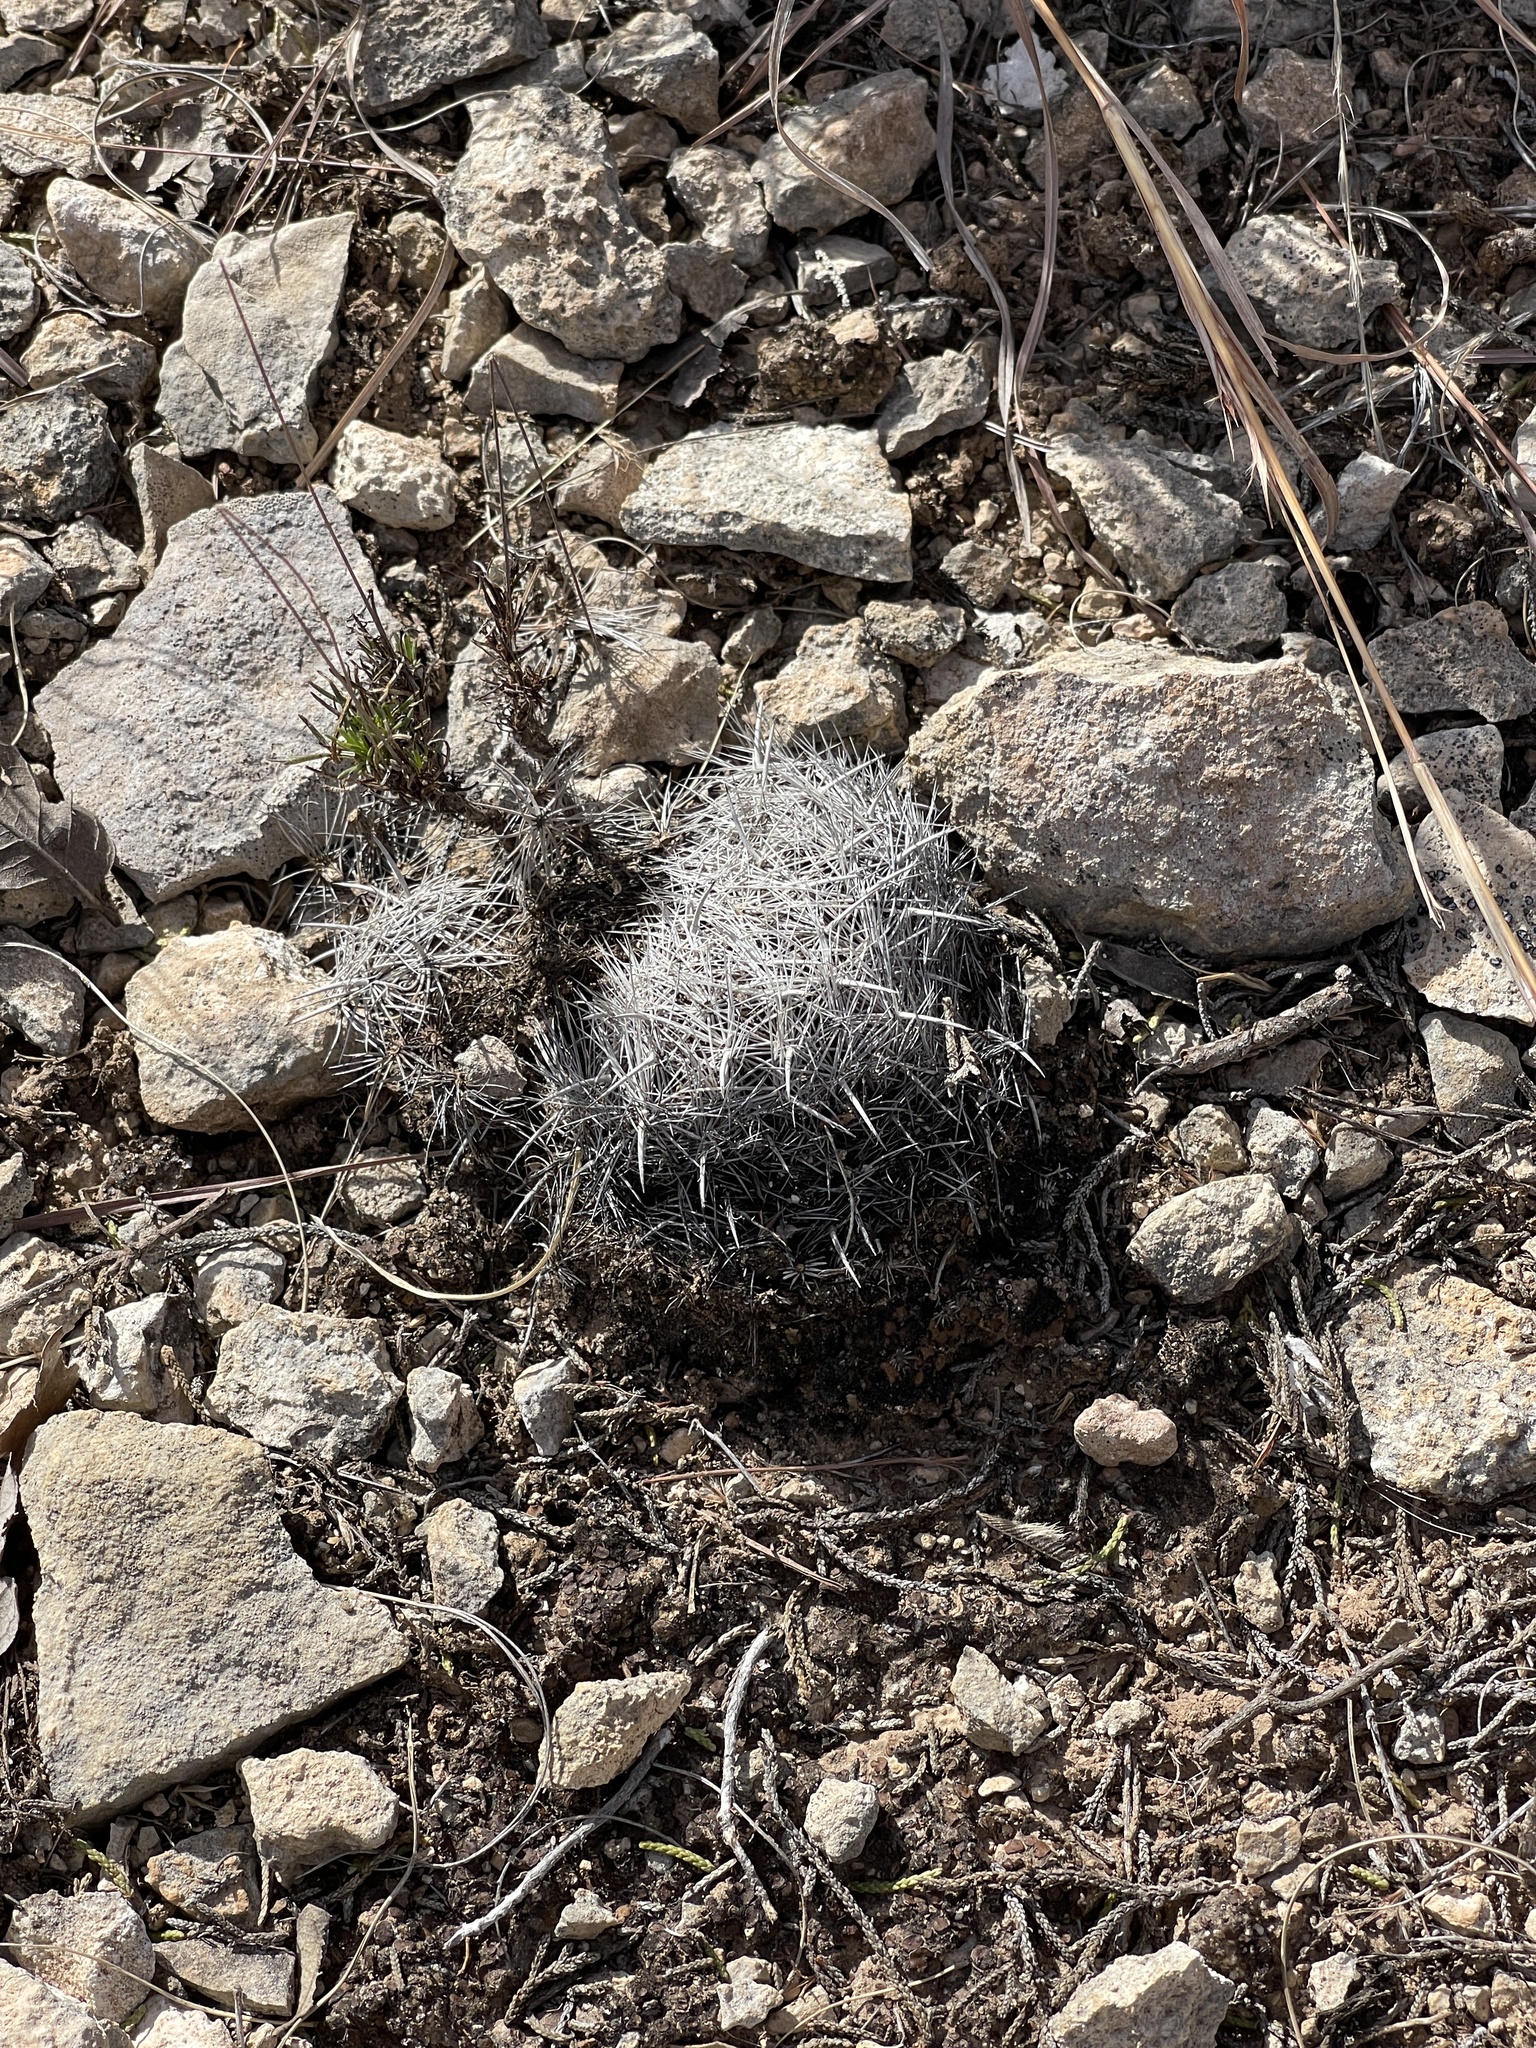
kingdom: Plantae
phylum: Tracheophyta
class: Magnoliopsida
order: Caryophyllales
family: Cactaceae
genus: Coryphantha
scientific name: Coryphantha echinus
